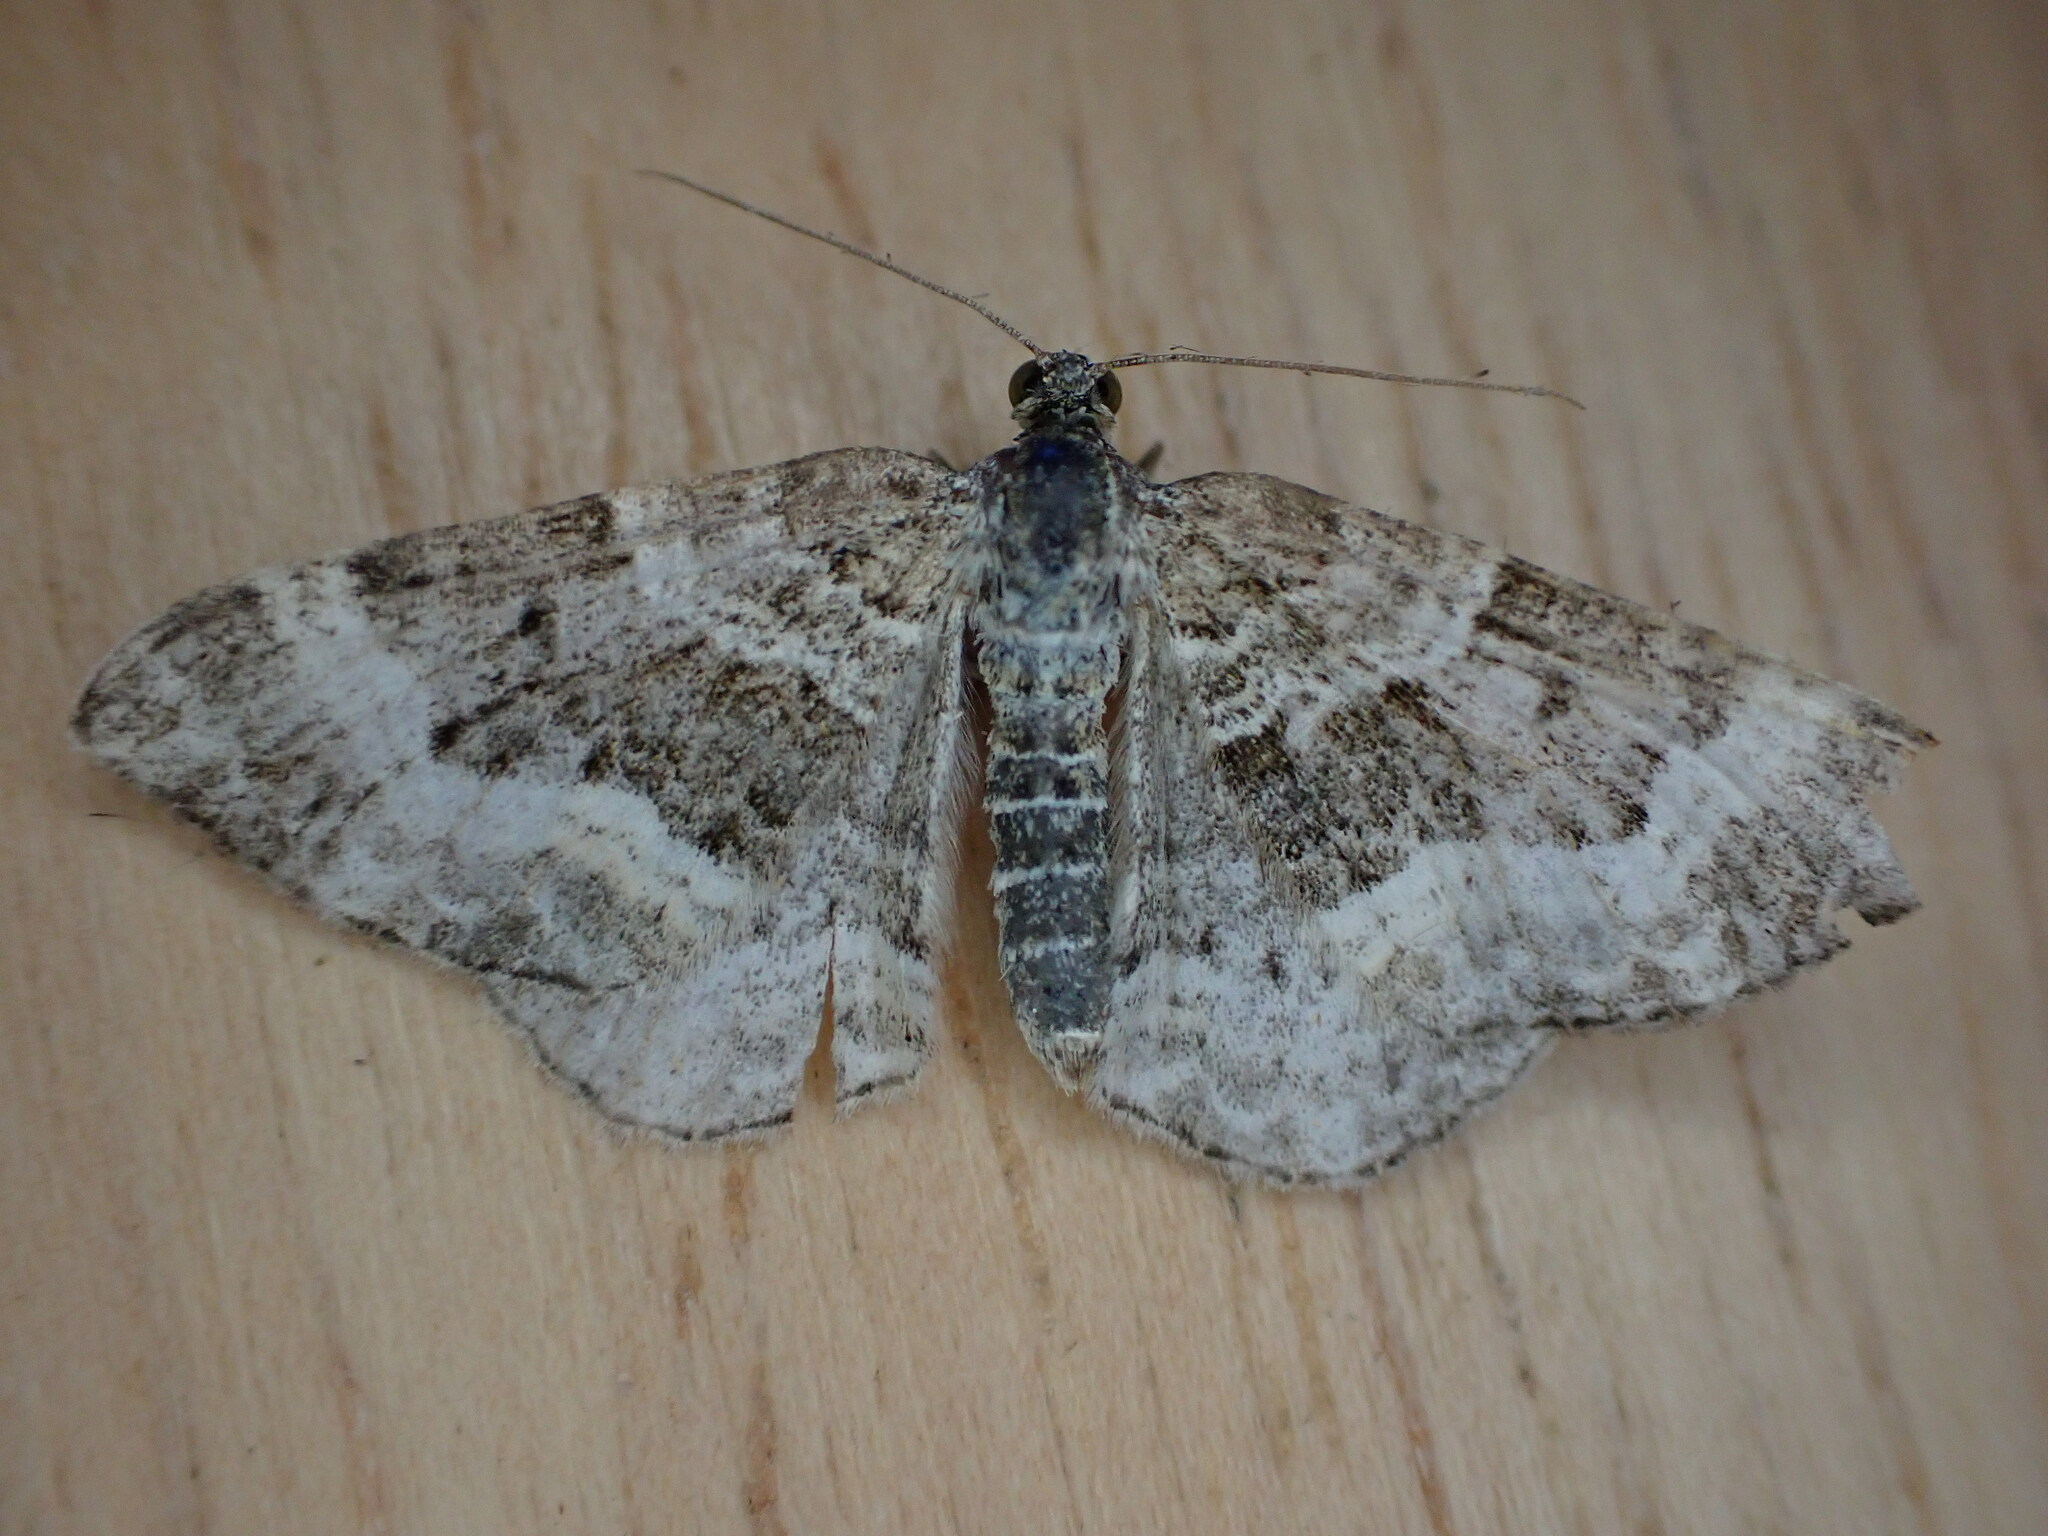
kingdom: Animalia
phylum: Arthropoda
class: Insecta
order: Lepidoptera
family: Geometridae
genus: Epirrhoe
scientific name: Epirrhoe alternata
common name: Common carpet
